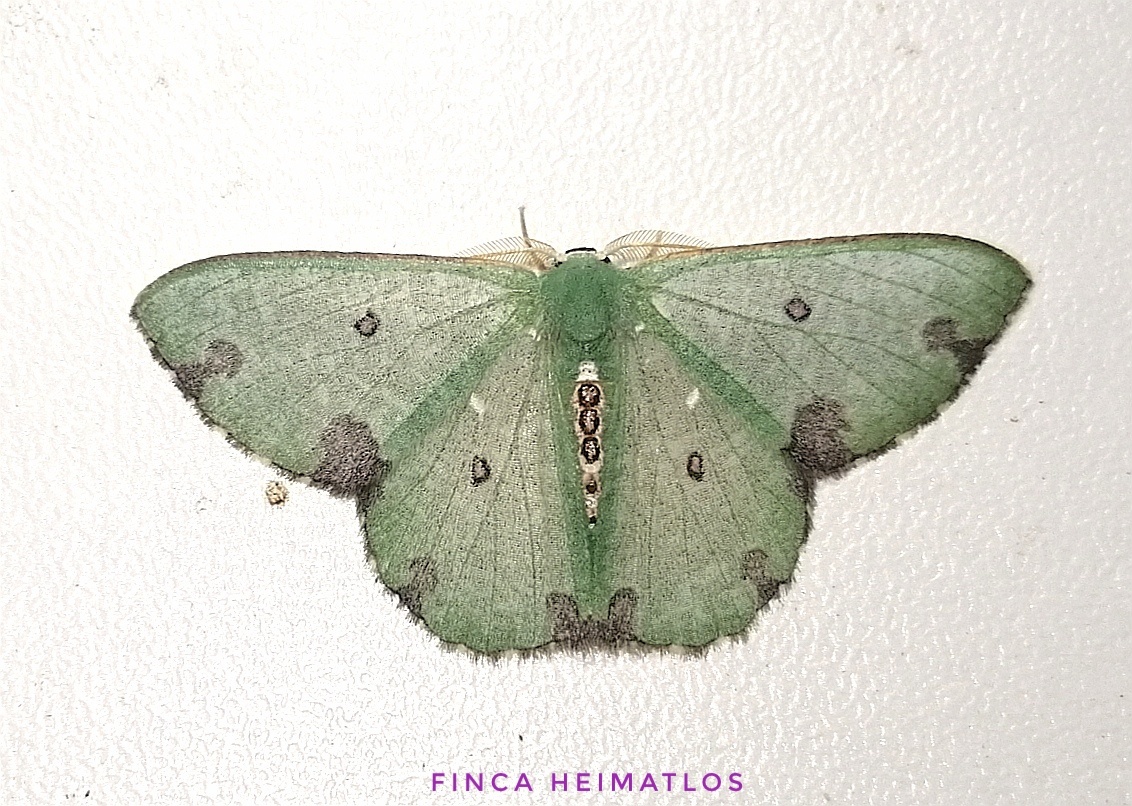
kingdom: Animalia
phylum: Arthropoda
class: Insecta
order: Lepidoptera
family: Geometridae
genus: Oospila
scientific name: Oospila hyalina
